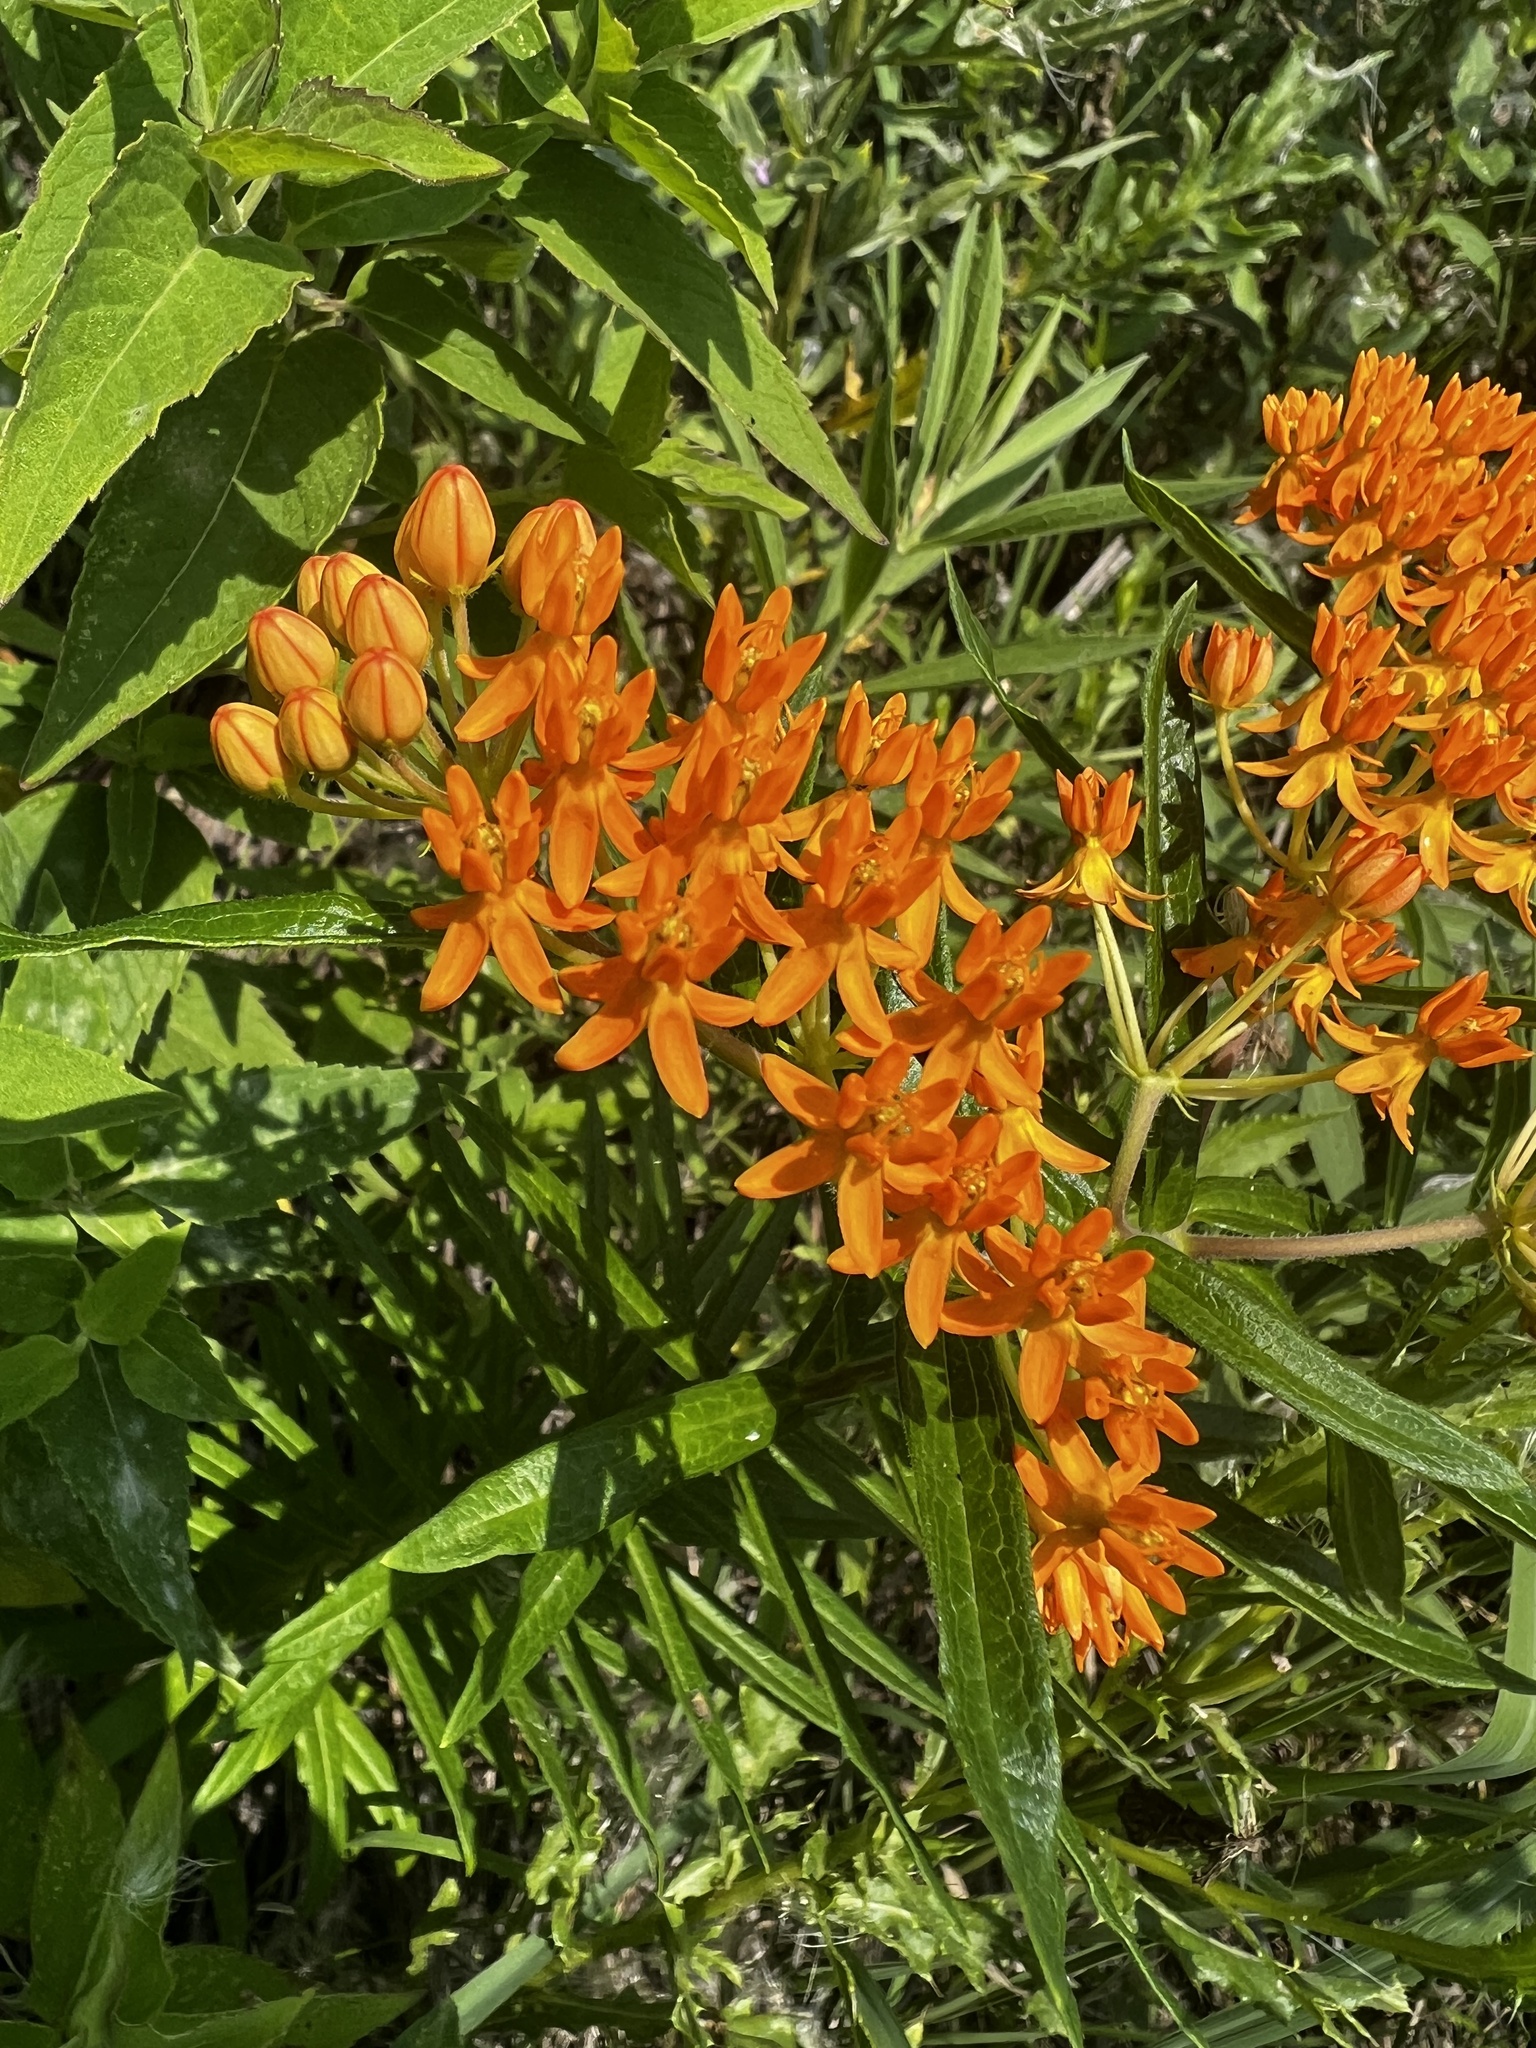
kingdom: Plantae
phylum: Tracheophyta
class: Magnoliopsida
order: Gentianales
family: Apocynaceae
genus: Asclepias
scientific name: Asclepias tuberosa
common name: Butterfly milkweed
